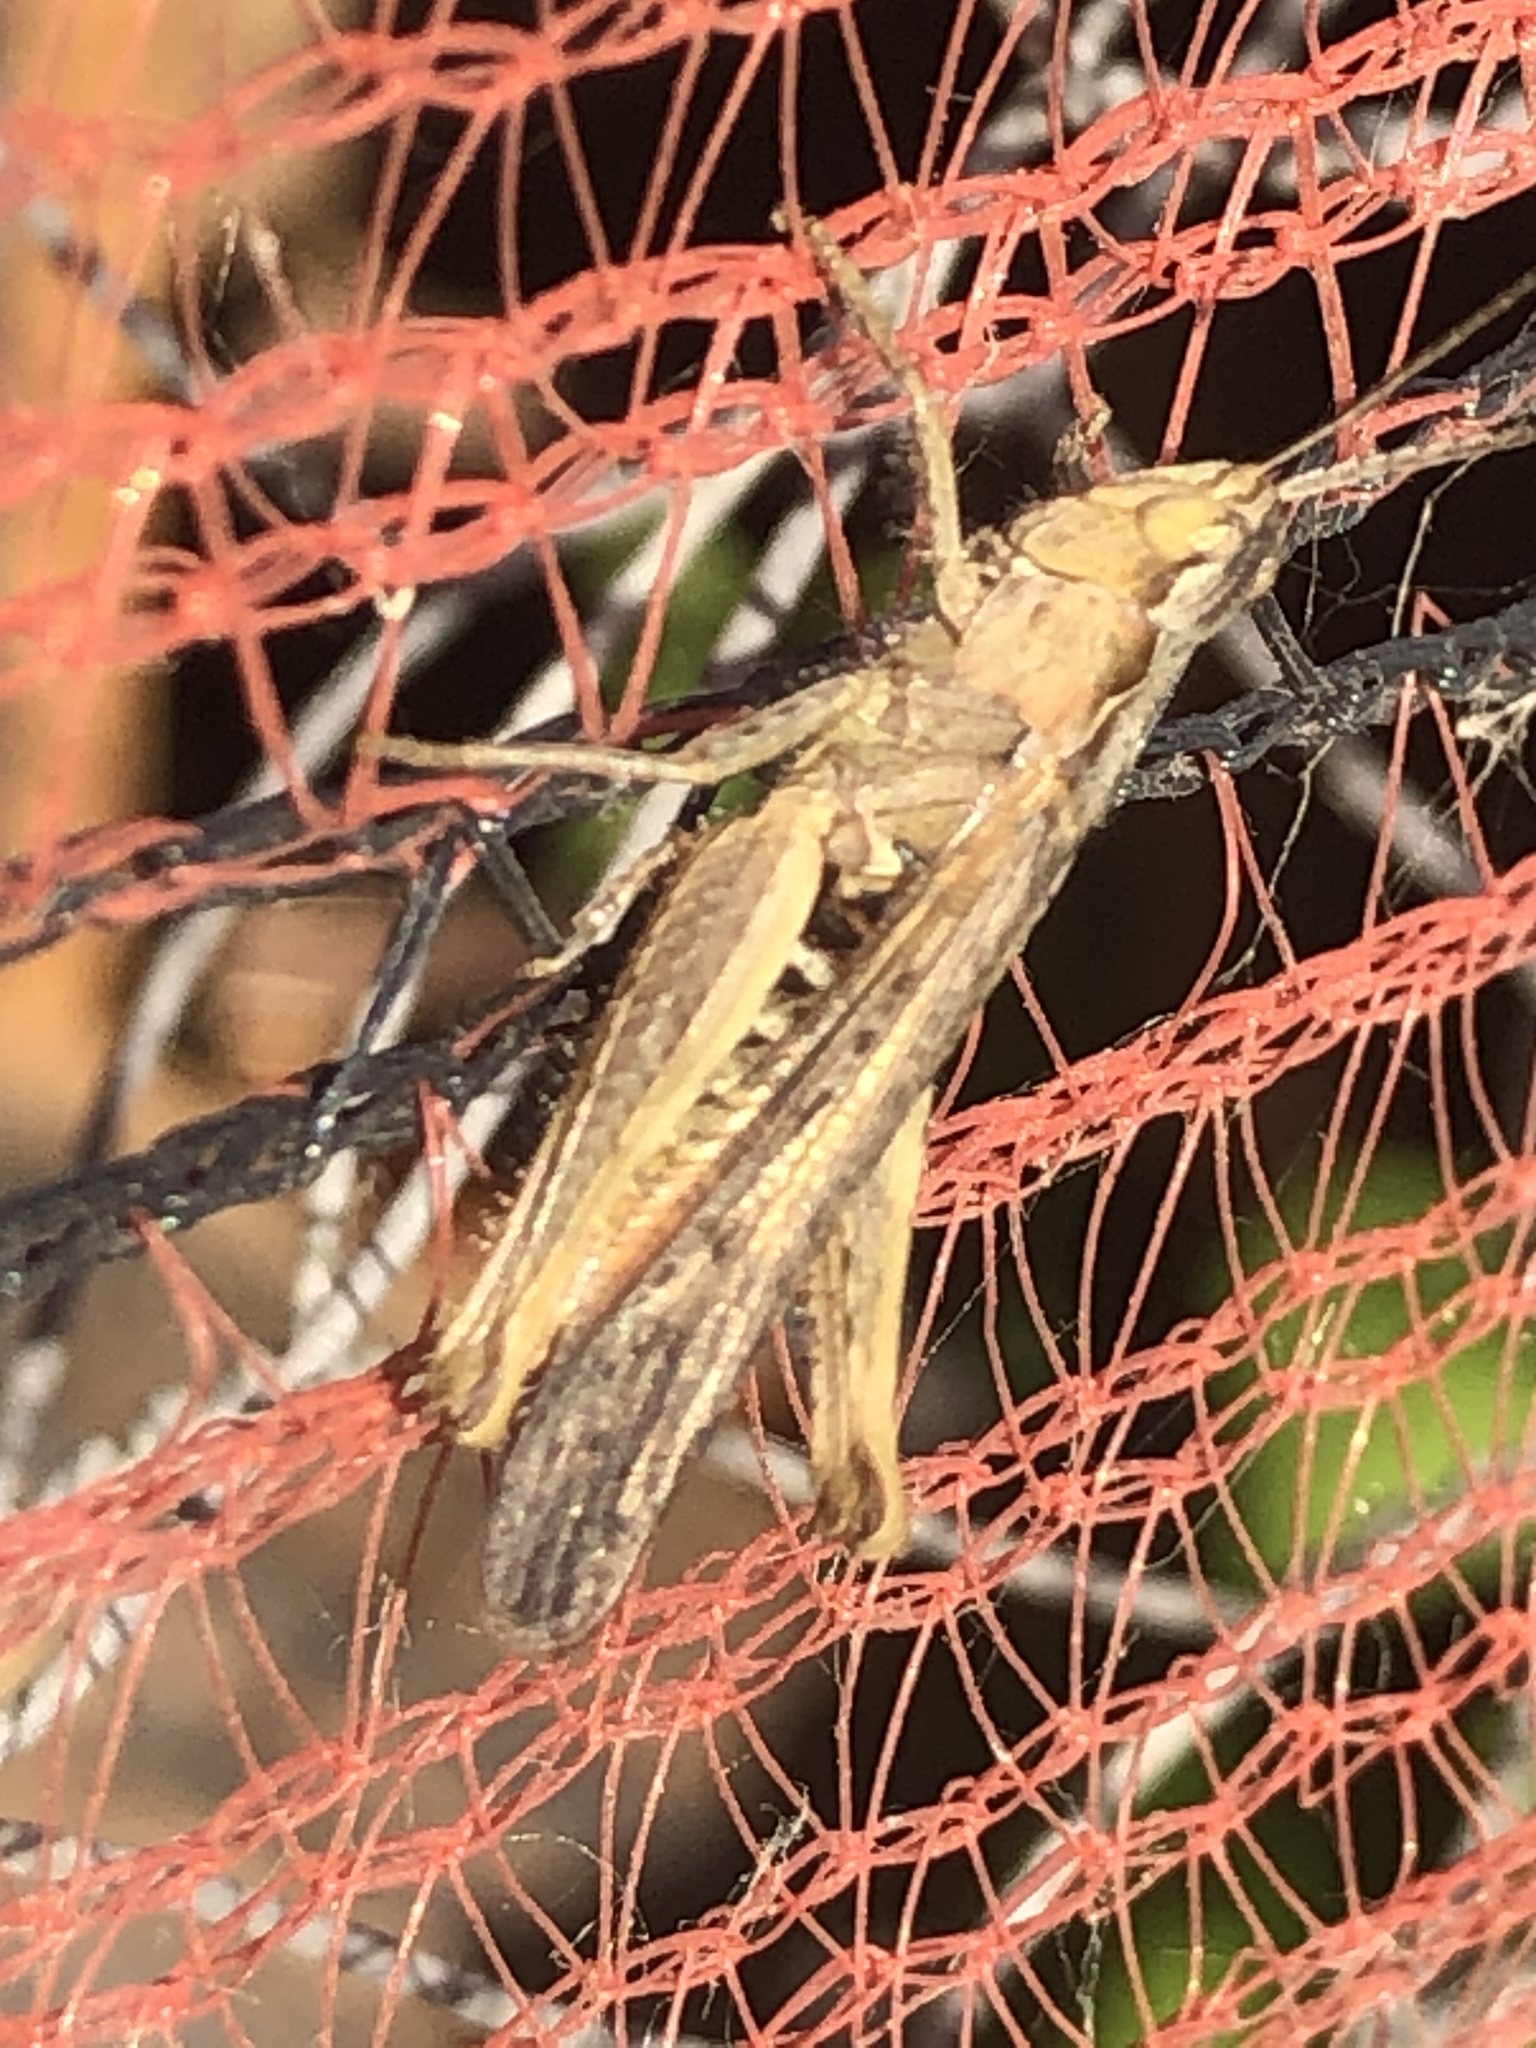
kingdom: Animalia
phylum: Arthropoda
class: Insecta
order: Orthoptera
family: Acrididae
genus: Chorthippus
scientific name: Chorthippus brunneus
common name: Field grasshopper
